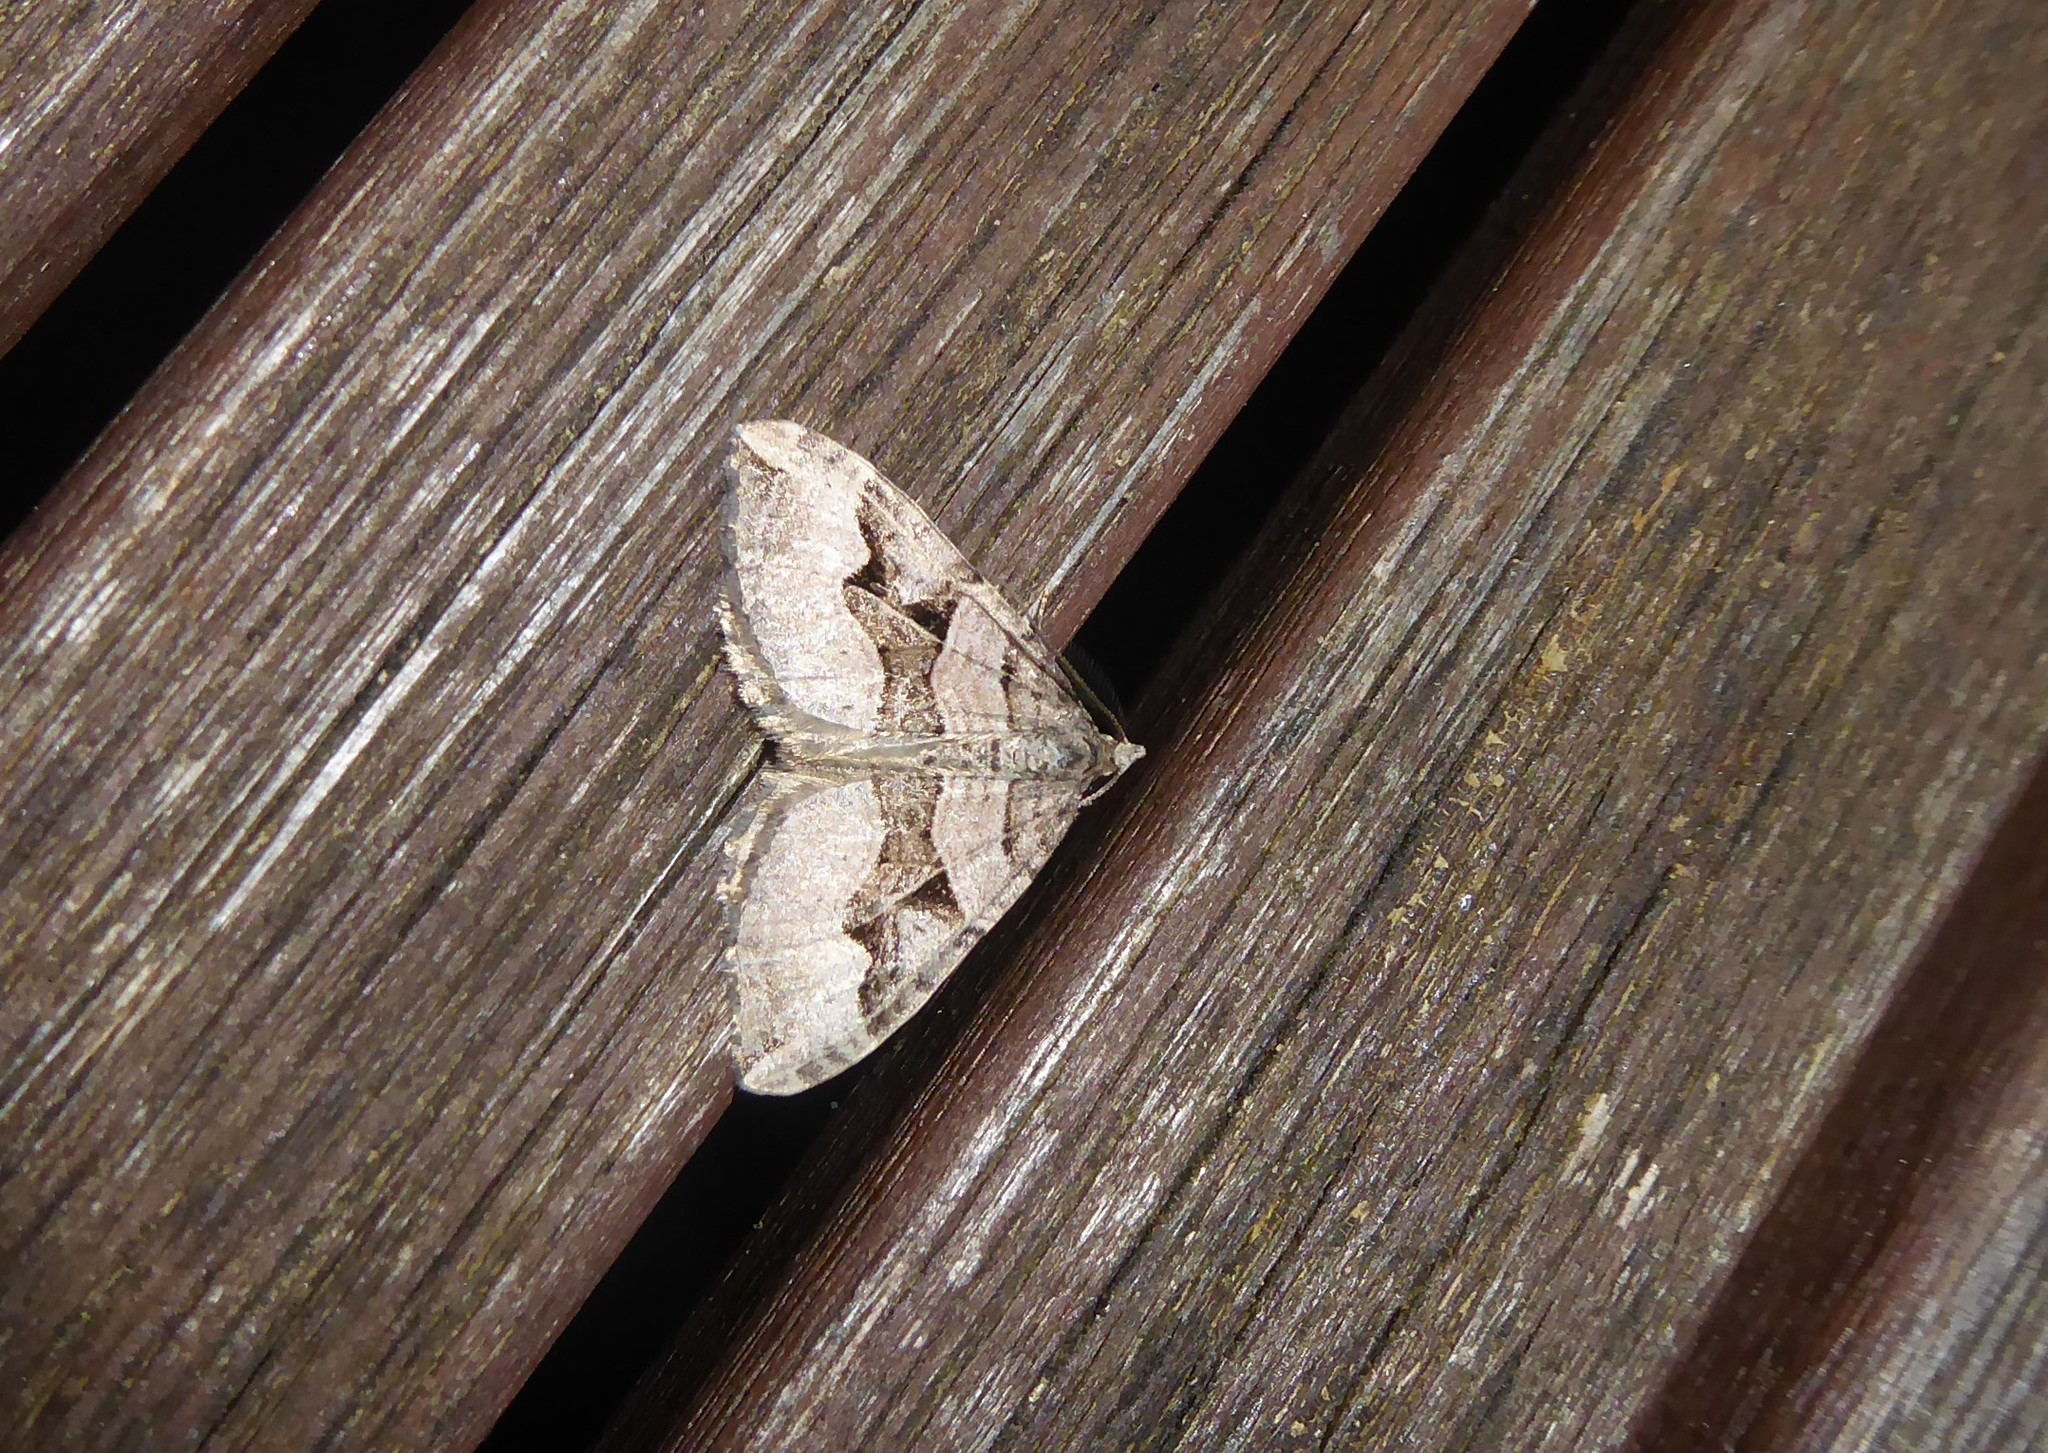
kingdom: Animalia
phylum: Arthropoda
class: Insecta
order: Lepidoptera
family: Geometridae
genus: Xanthorhoe
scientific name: Xanthorhoe semifissata
